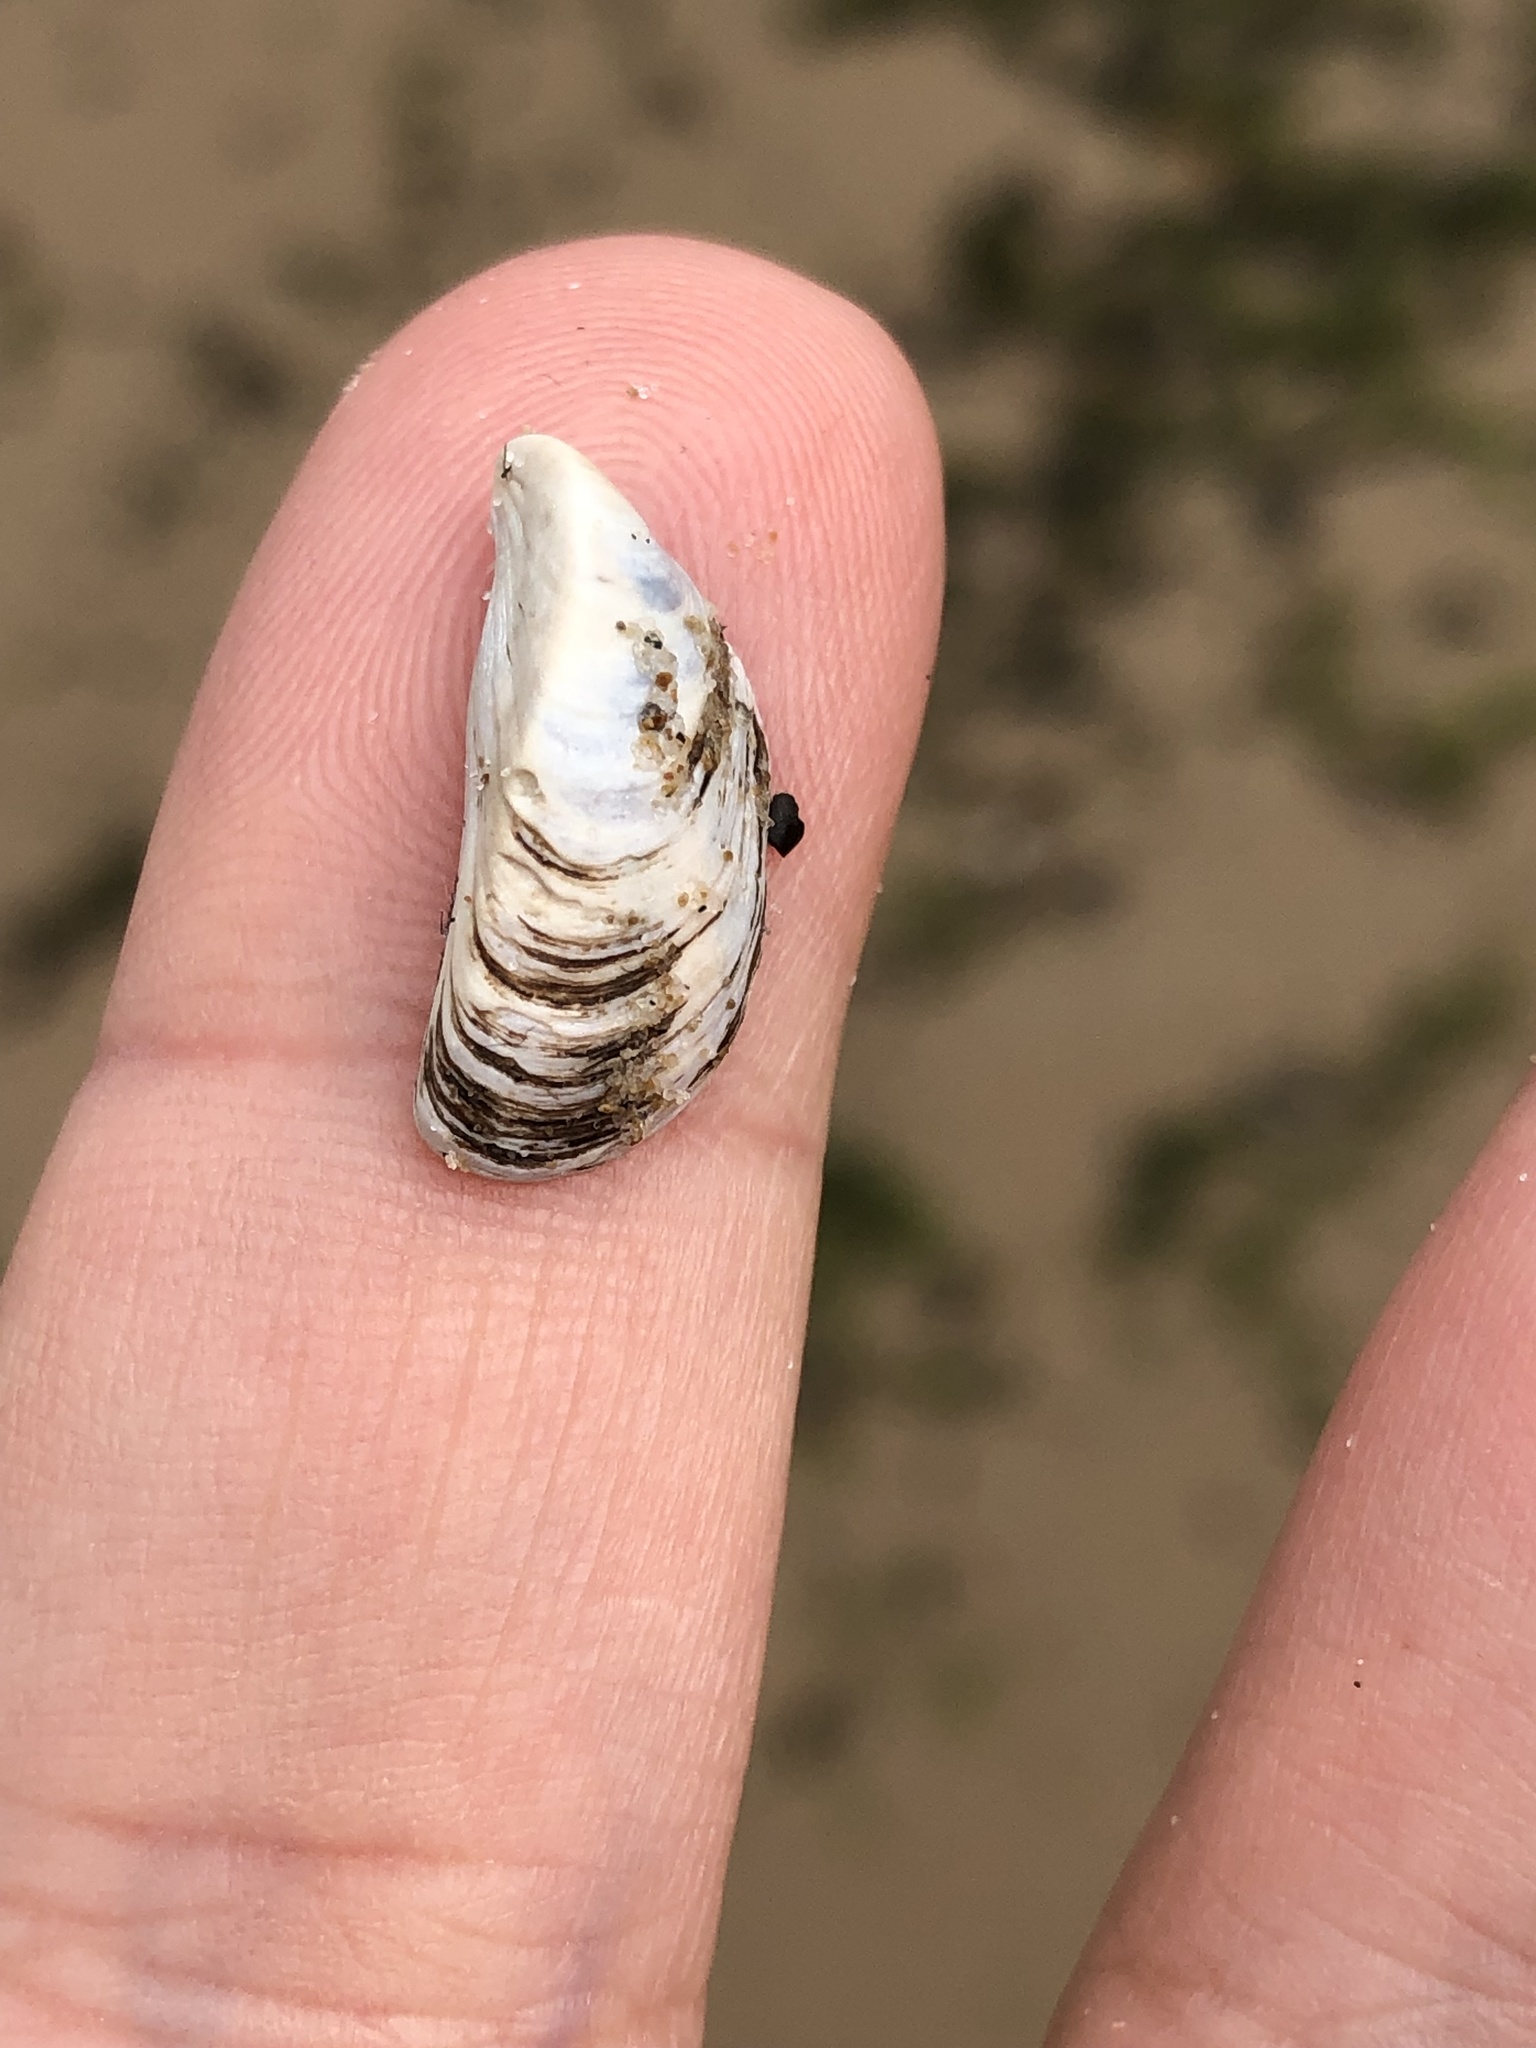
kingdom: Animalia
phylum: Mollusca
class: Bivalvia
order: Myida
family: Dreissenidae
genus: Dreissena
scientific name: Dreissena polymorpha
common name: Zebra mussel
